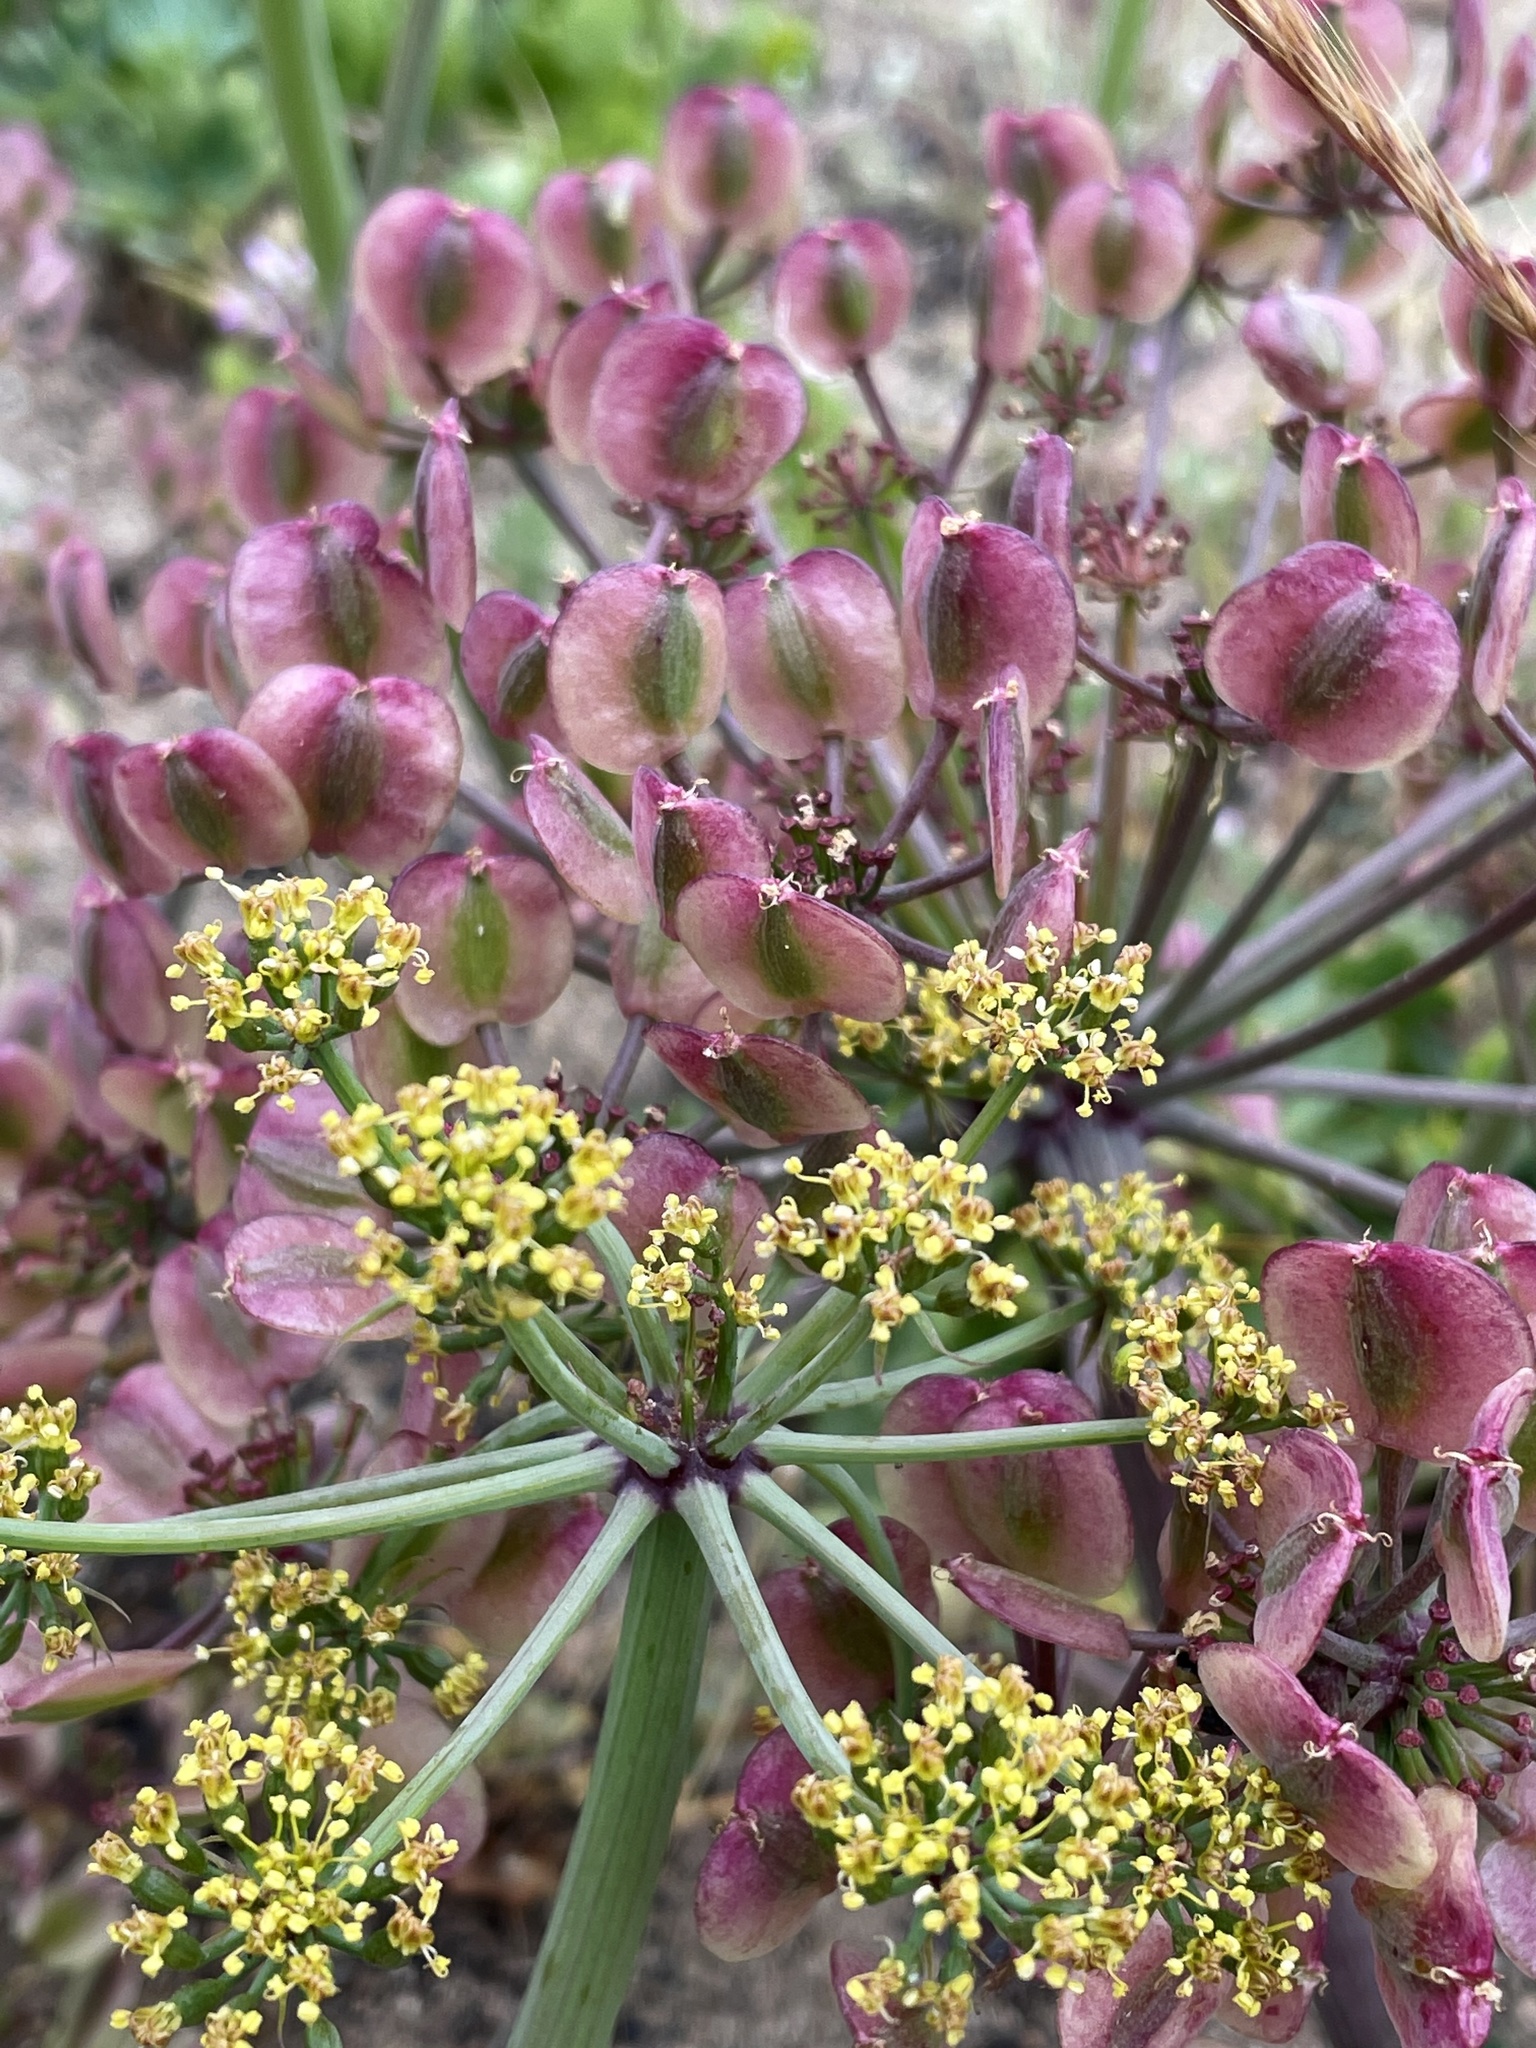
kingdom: Plantae
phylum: Tracheophyta
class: Magnoliopsida
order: Apiales
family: Apiaceae
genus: Lomatium
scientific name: Lomatium lucidum
